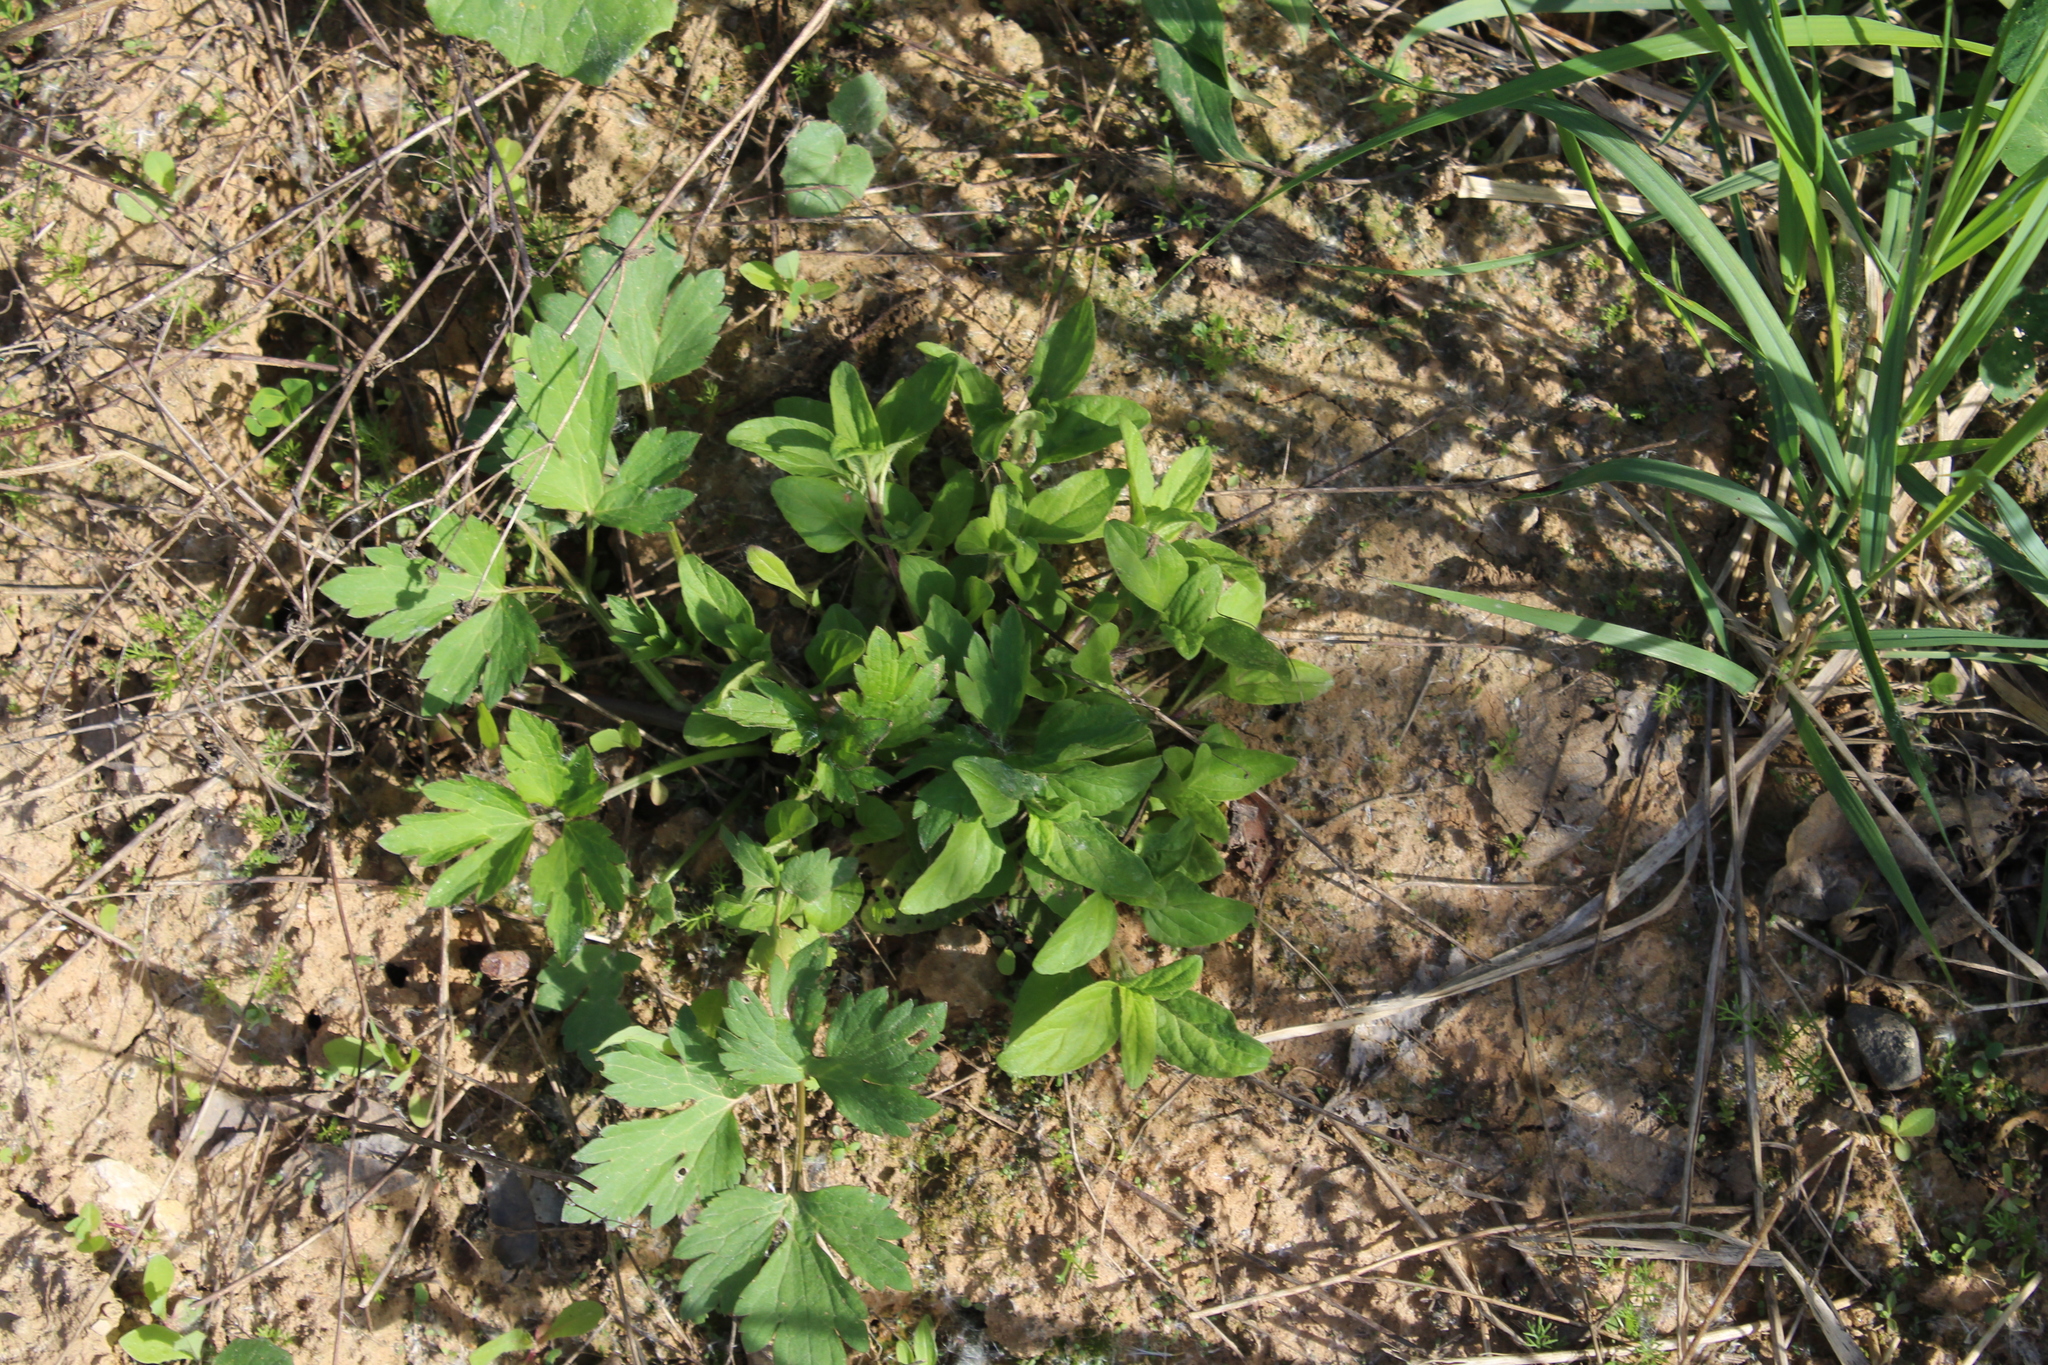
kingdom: Plantae
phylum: Tracheophyta
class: Magnoliopsida
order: Lamiales
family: Lamiaceae
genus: Prunella
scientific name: Prunella vulgaris
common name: Heal-all
